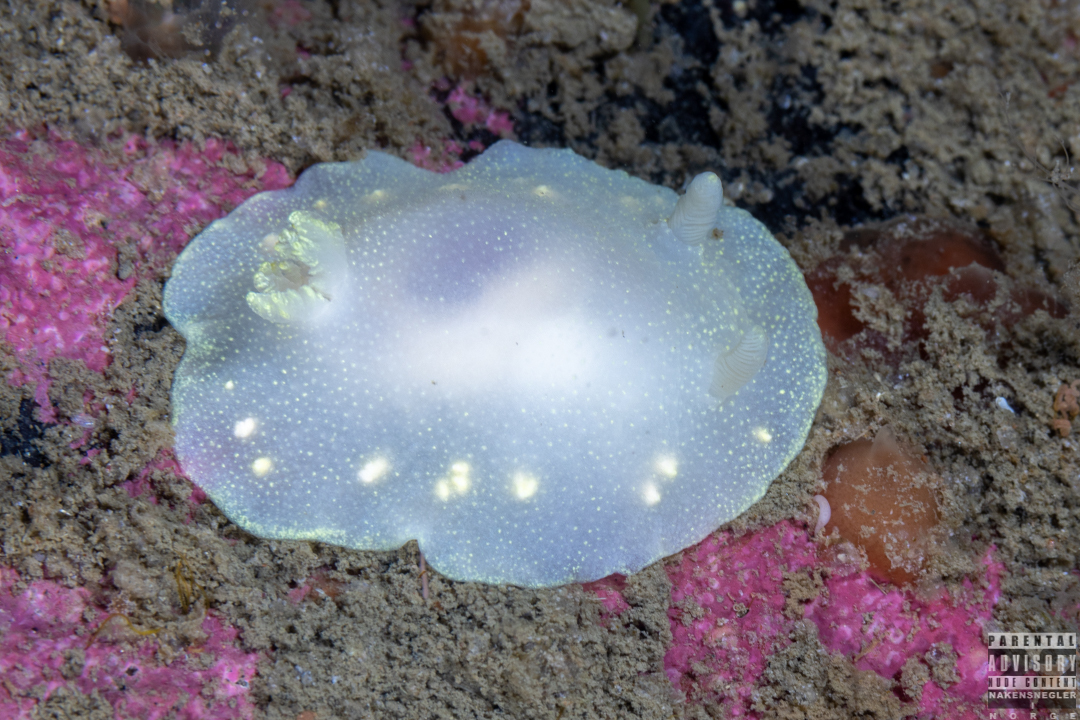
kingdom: Animalia
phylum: Mollusca
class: Gastropoda
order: Nudibranchia
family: Cadlinidae
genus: Cadlina
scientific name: Cadlina laevis
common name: White atlantic cadlina
